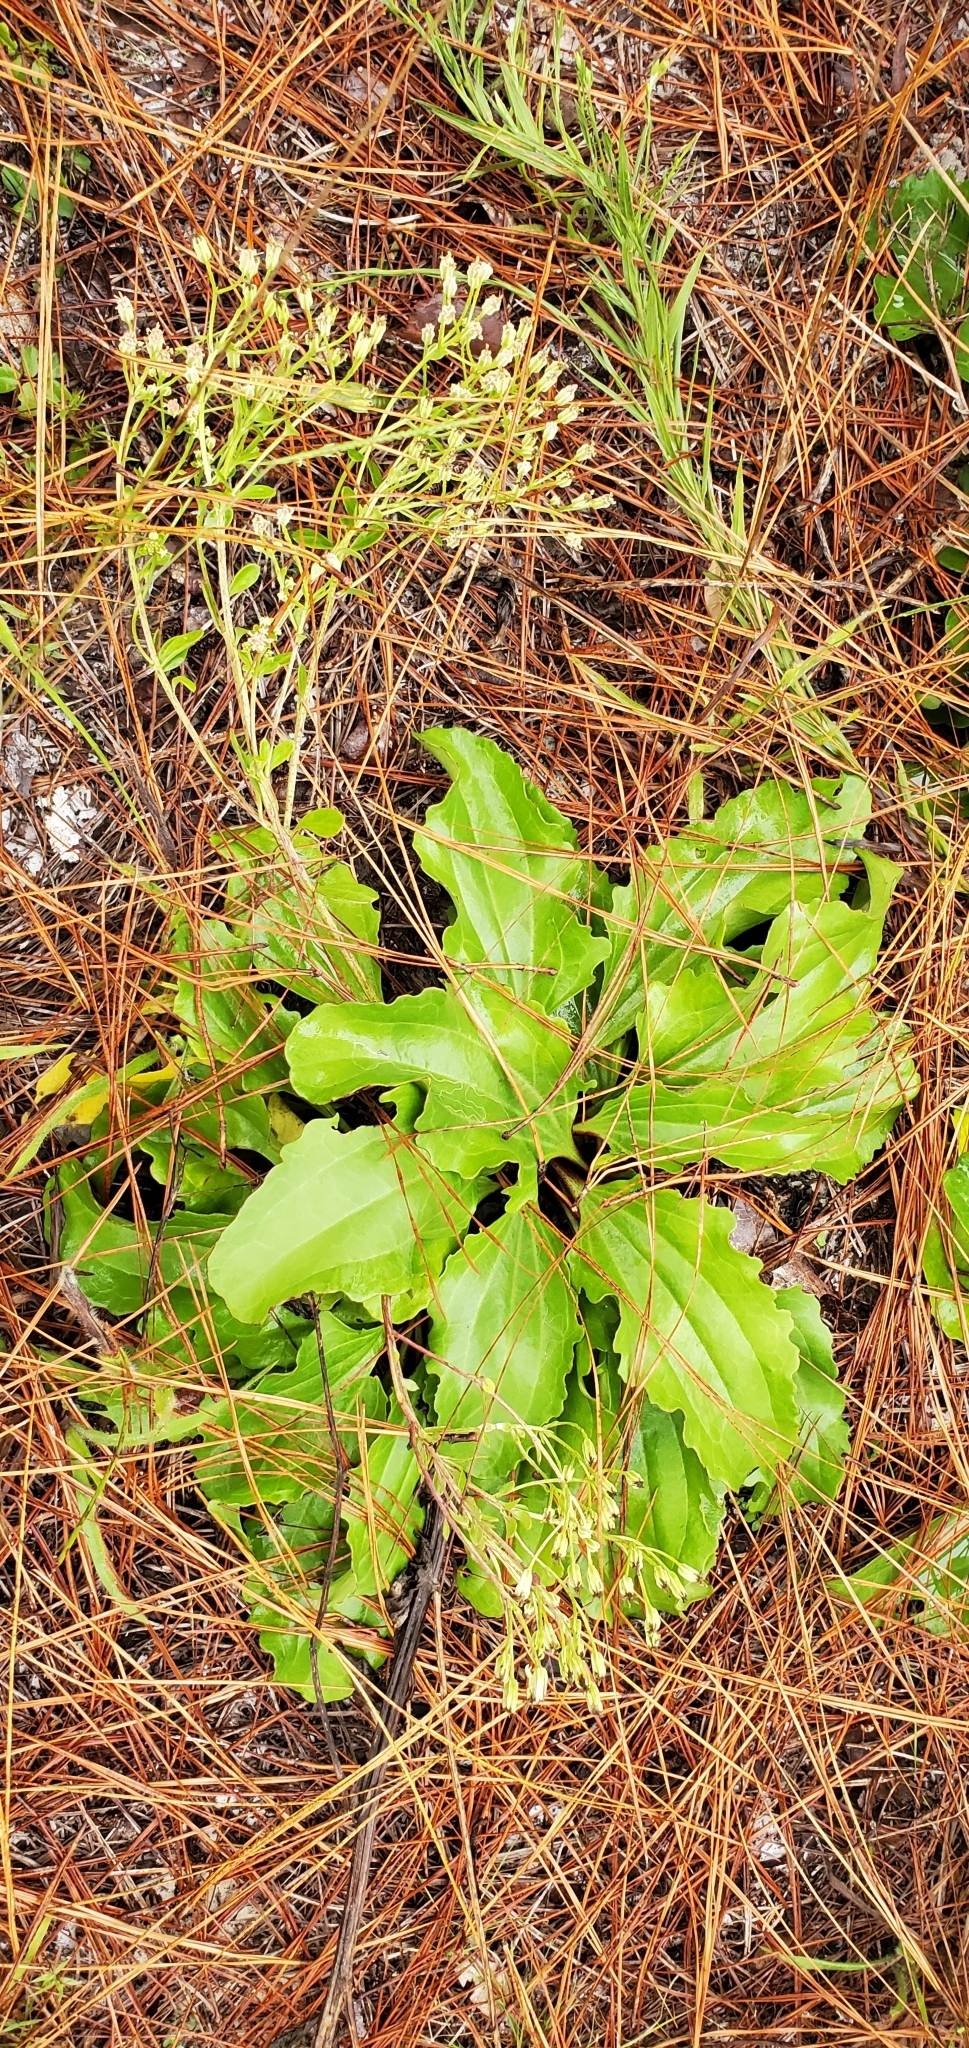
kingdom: Plantae
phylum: Tracheophyta
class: Magnoliopsida
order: Asterales
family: Asteraceae
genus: Arnoglossum
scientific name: Arnoglossum floridanum
